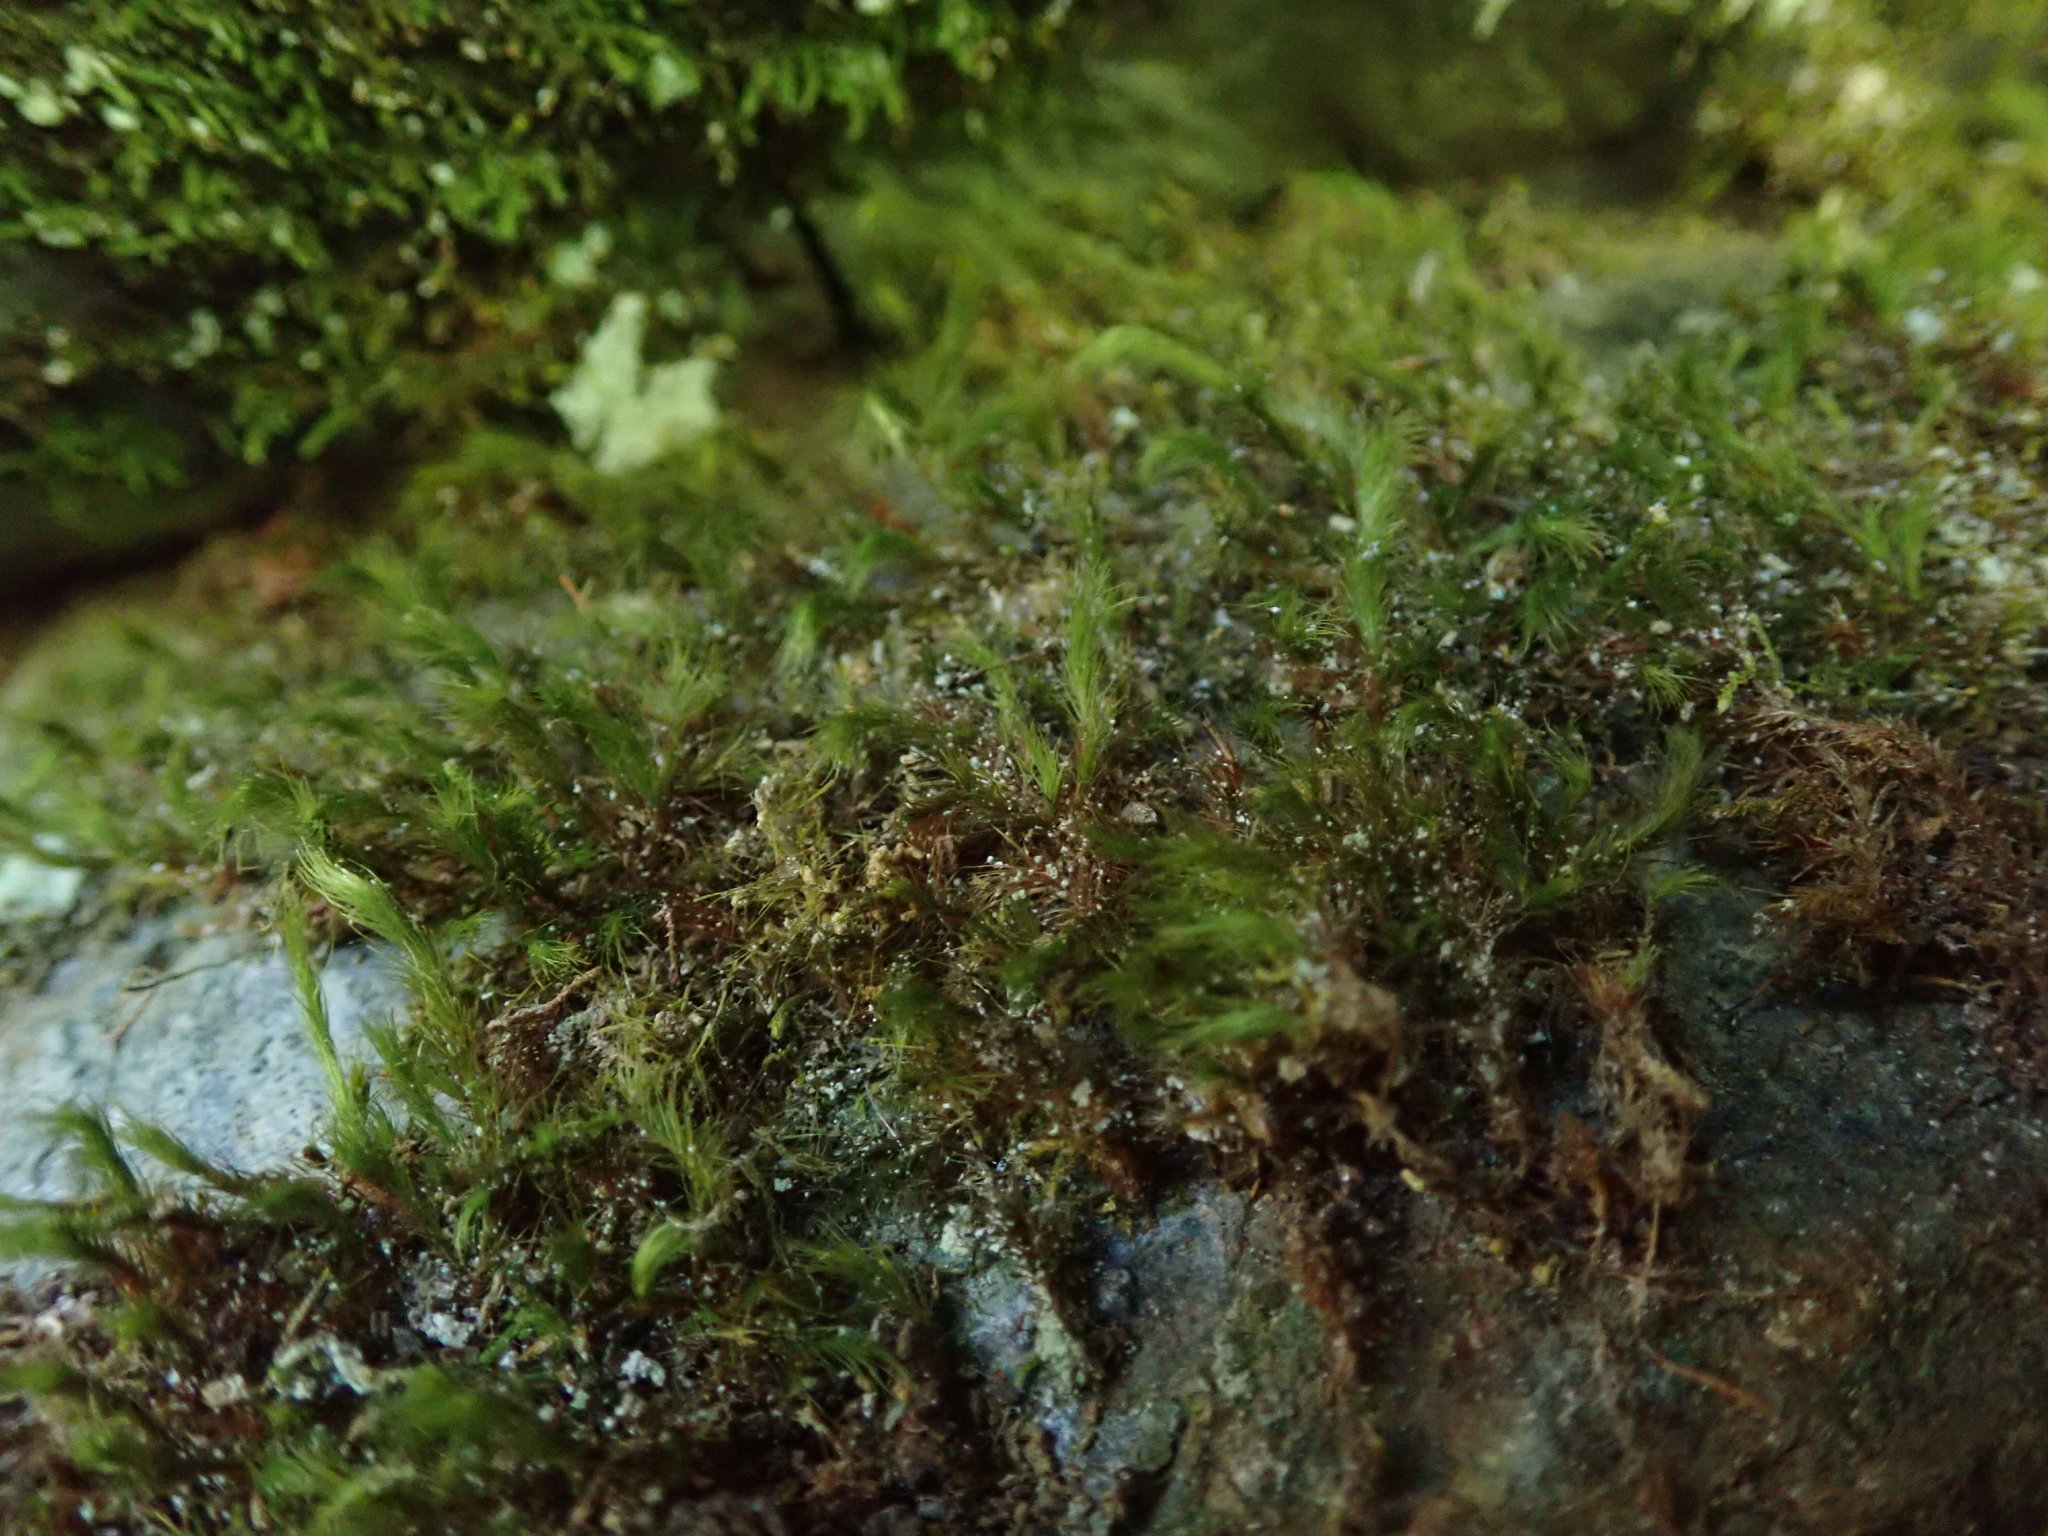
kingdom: Plantae
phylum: Bryophyta
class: Bryopsida
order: Bartramiales
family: Bartramiaceae
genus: Anacolia
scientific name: Anacolia menziesii
